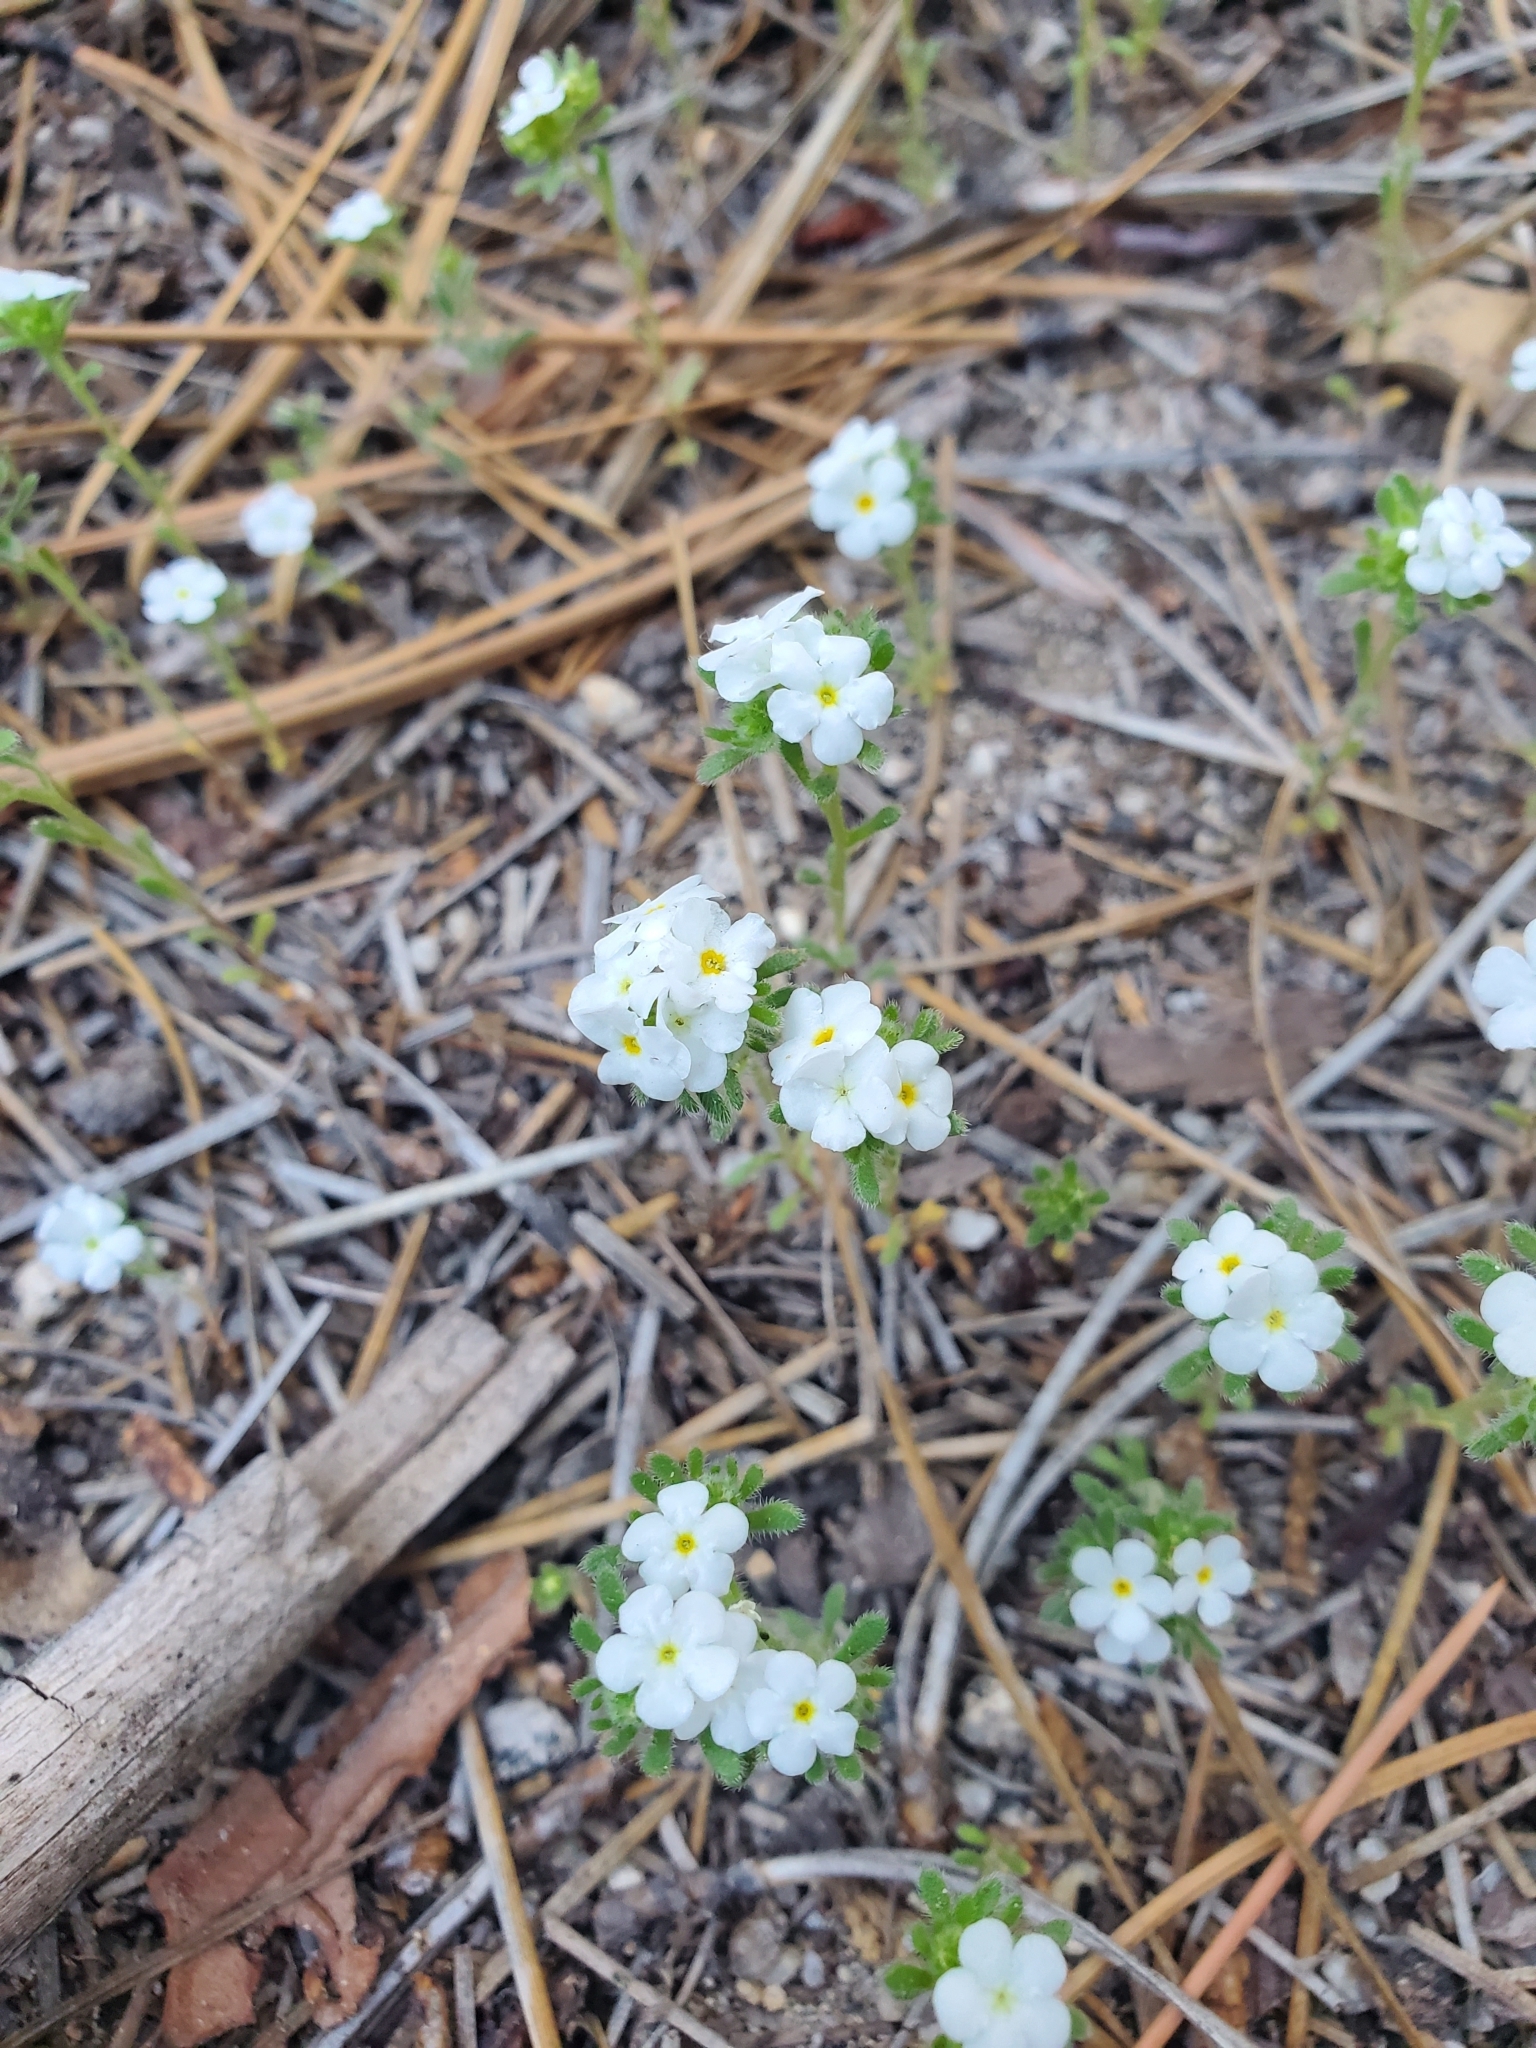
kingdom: Plantae
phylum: Tracheophyta
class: Magnoliopsida
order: Boraginales
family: Boraginaceae
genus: Eremocarya
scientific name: Eremocarya lepida
